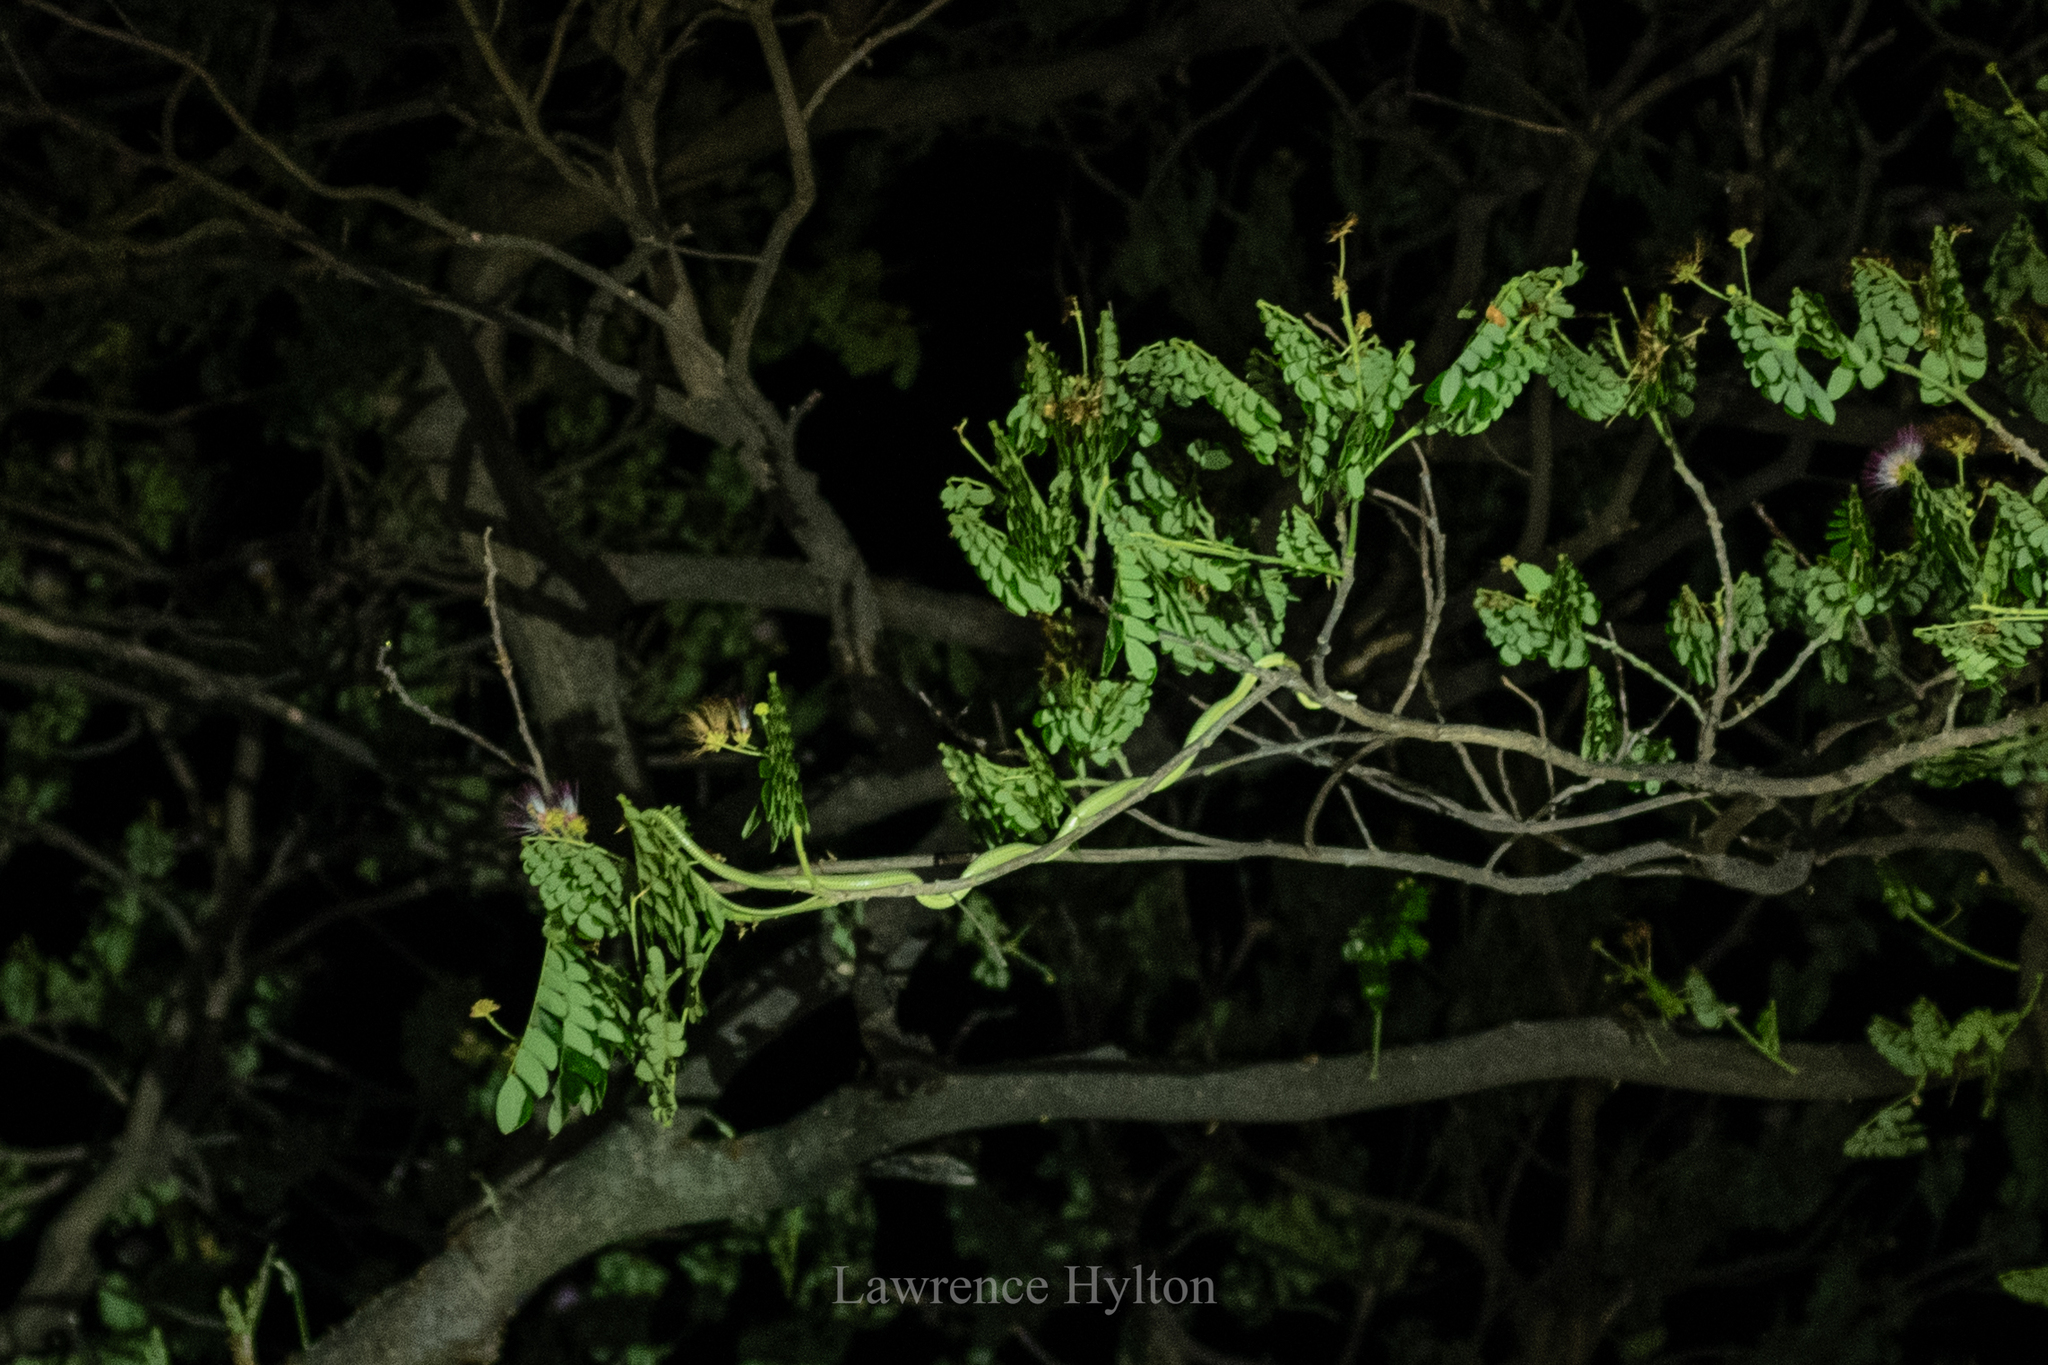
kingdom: Animalia
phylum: Chordata
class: Squamata
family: Colubridae
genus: Chrysopelea
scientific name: Chrysopelea ornata
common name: Golden flying snake
